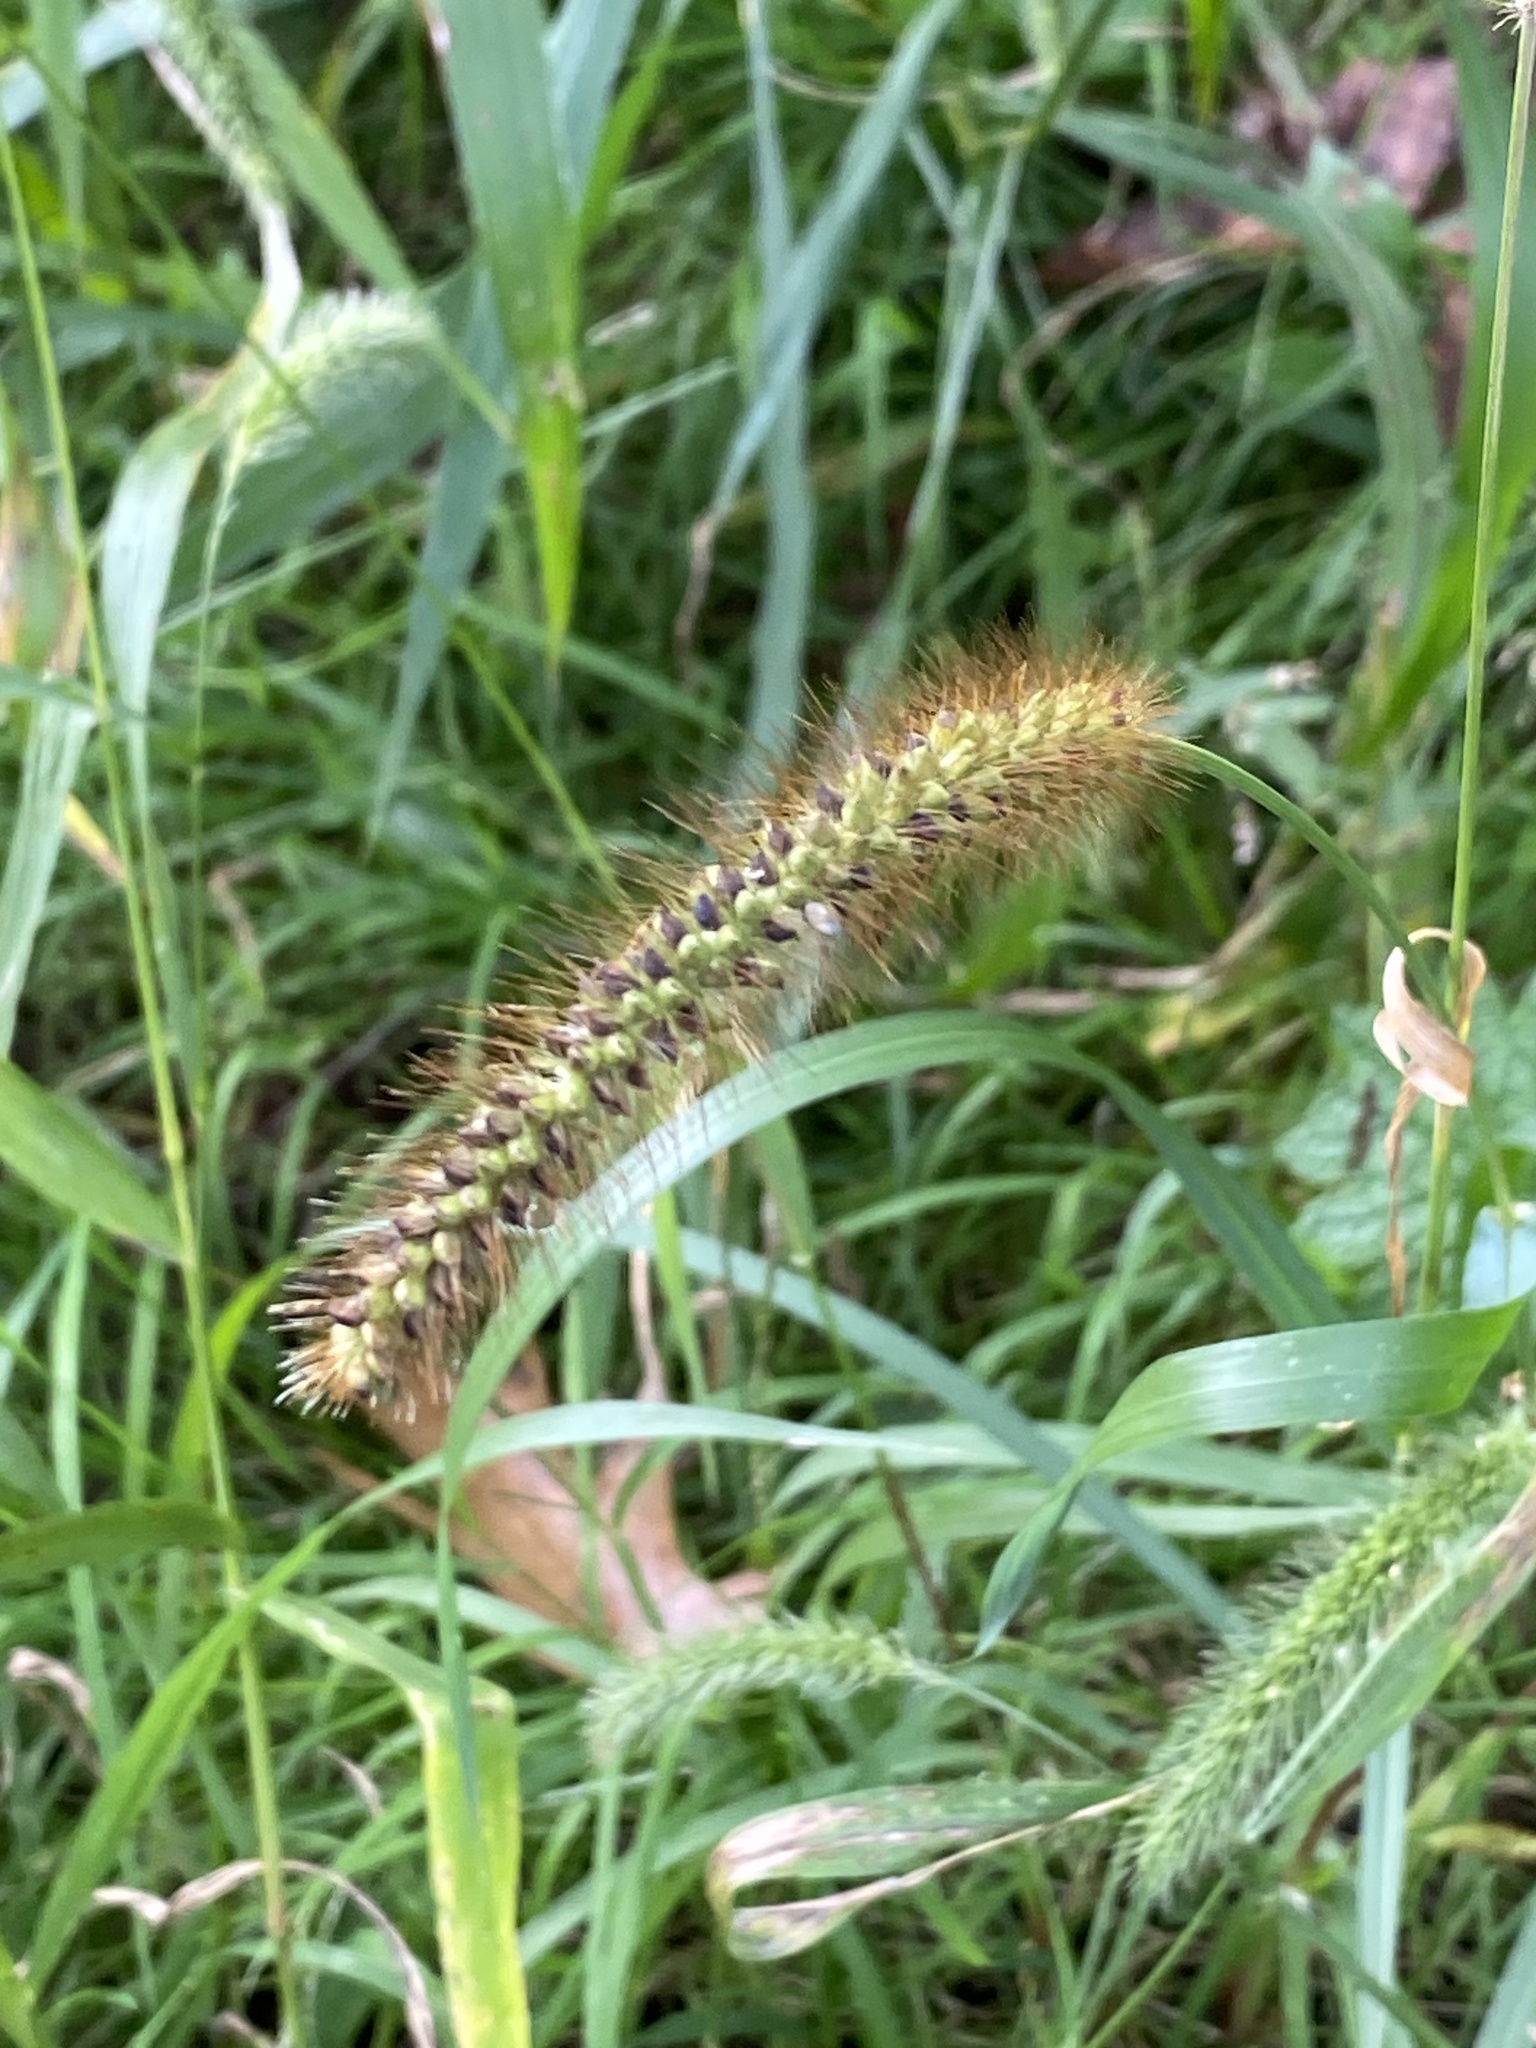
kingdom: Plantae
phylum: Tracheophyta
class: Liliopsida
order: Poales
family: Poaceae
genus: Setaria
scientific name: Setaria pumila
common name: Yellow bristle-grass
